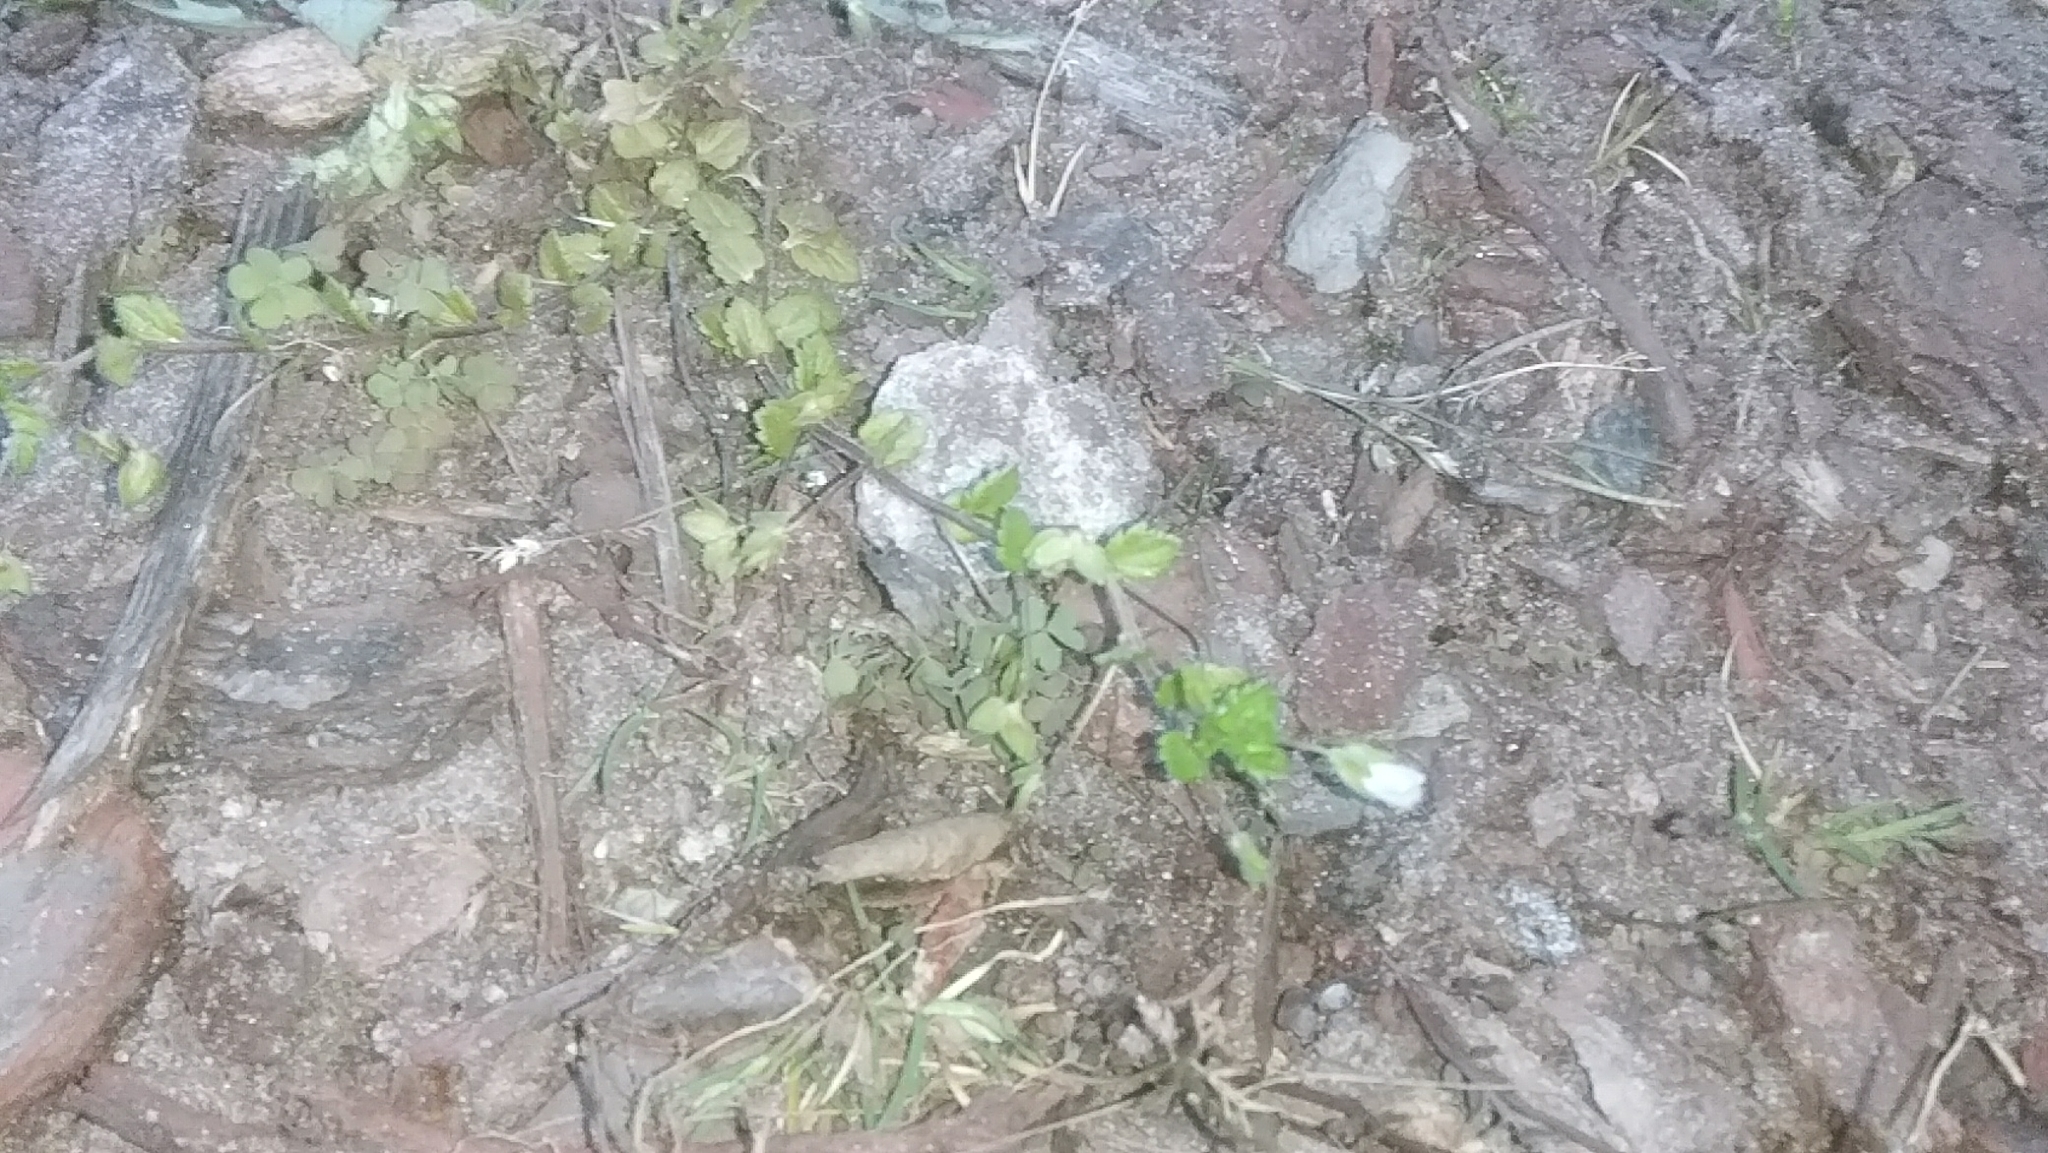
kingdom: Plantae
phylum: Tracheophyta
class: Magnoliopsida
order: Lamiales
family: Plantaginaceae
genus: Veronica
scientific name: Veronica persica
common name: Common field-speedwell
